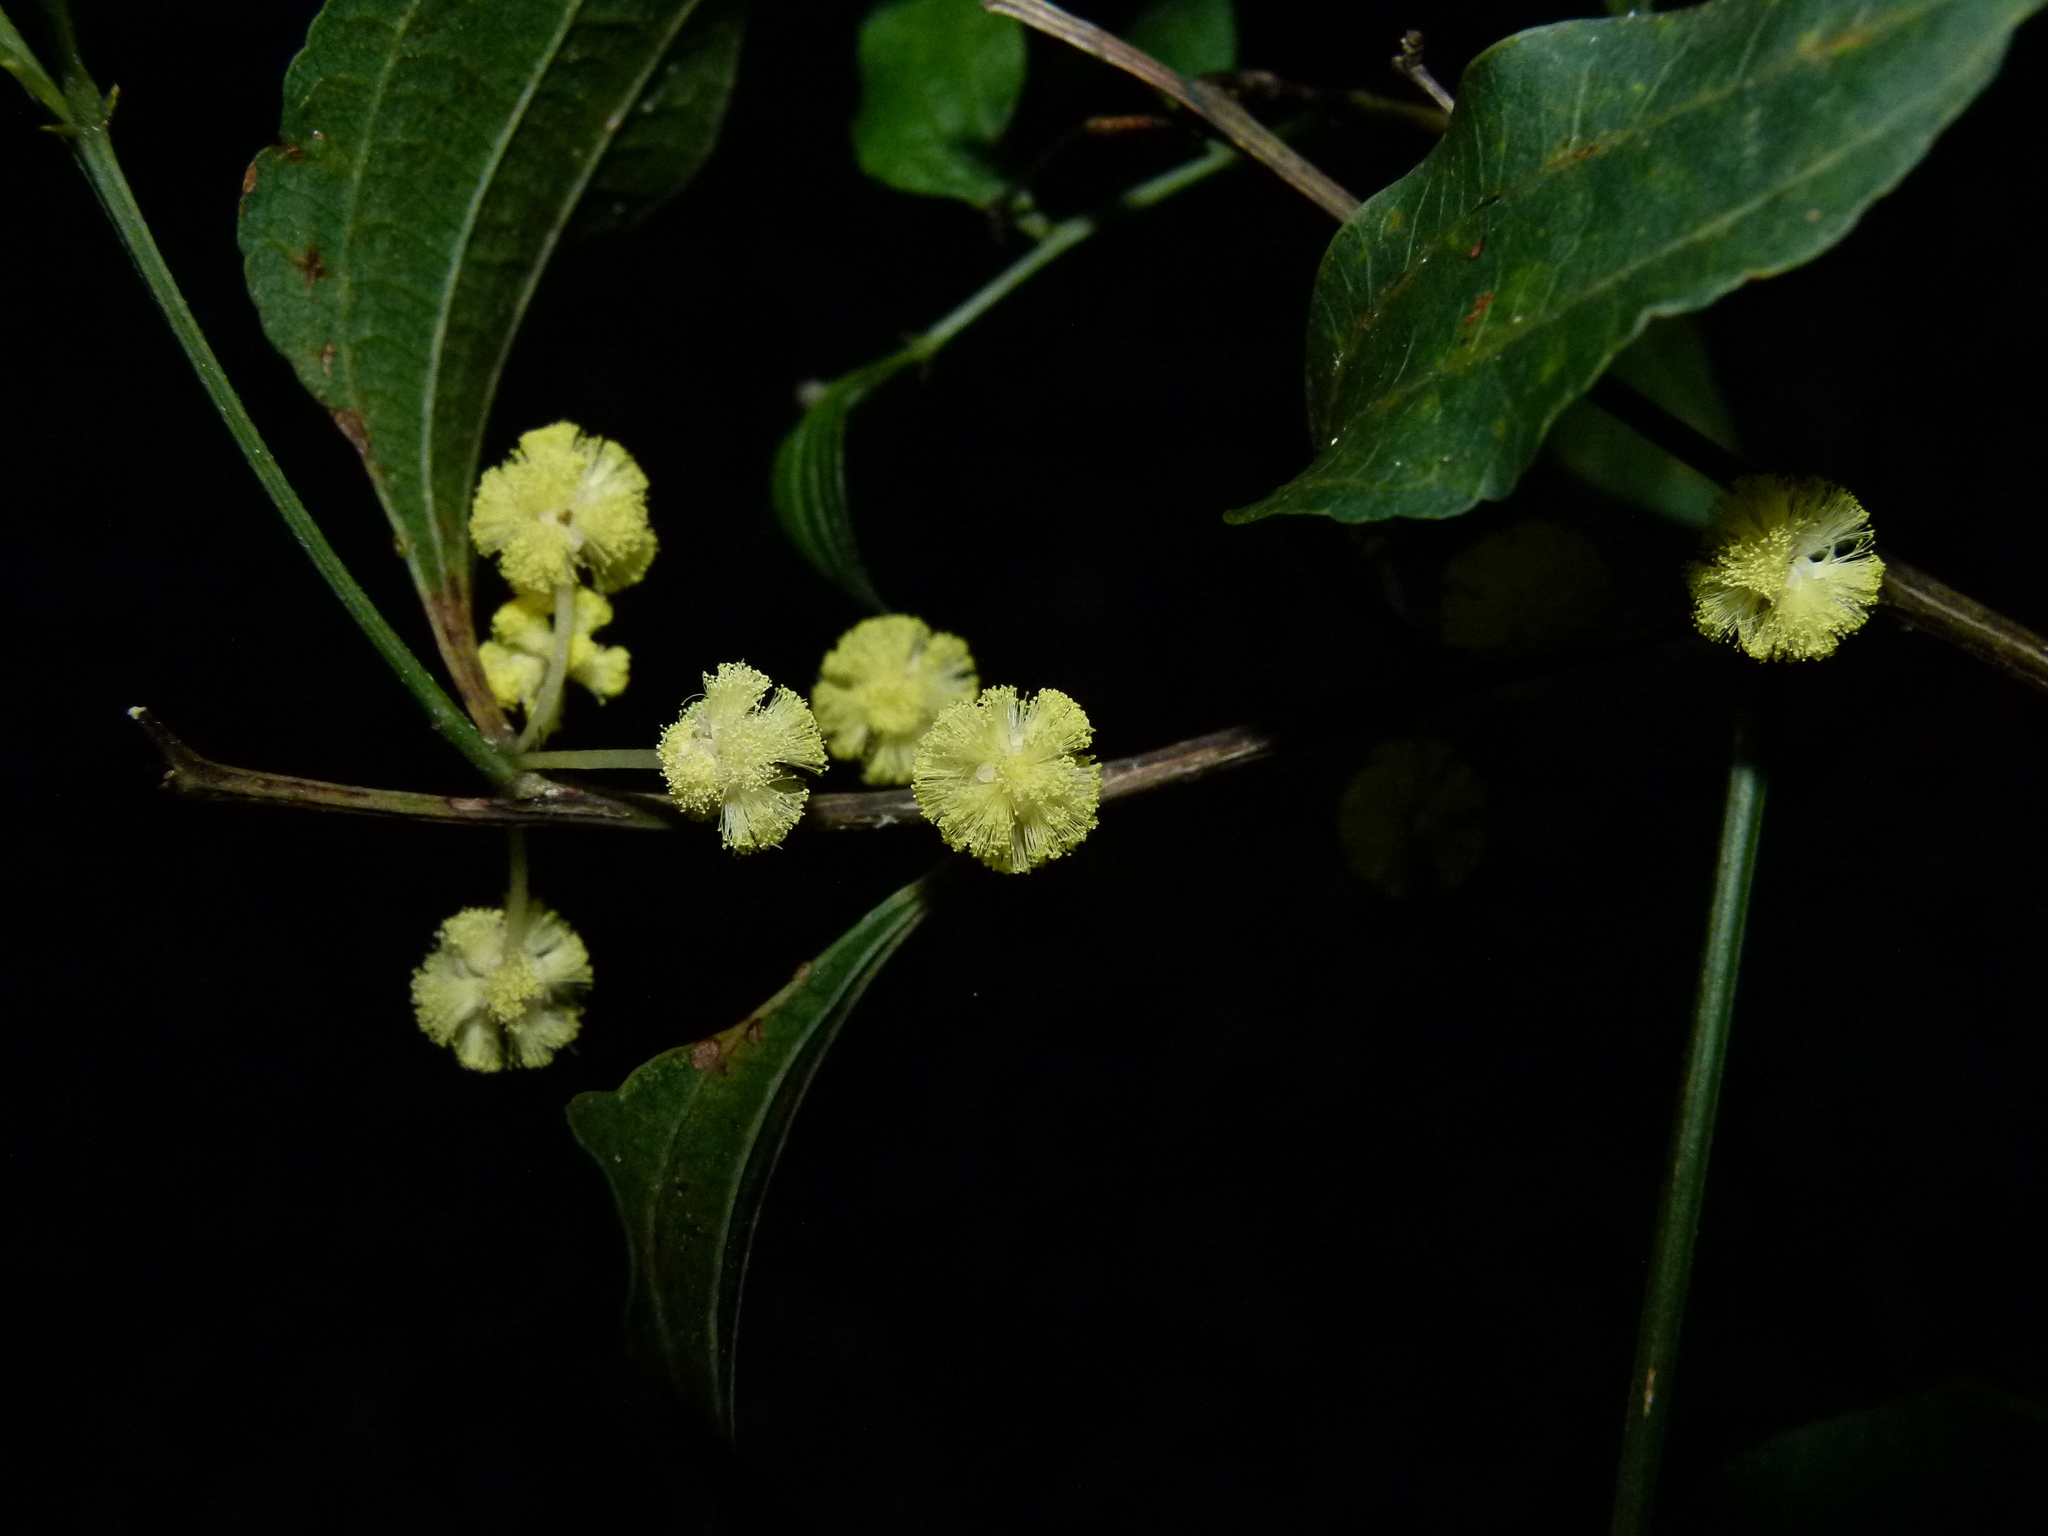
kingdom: Plantae
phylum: Tracheophyta
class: Magnoliopsida
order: Fabales
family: Fabaceae
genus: Acacia
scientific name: Acacia urophylla
